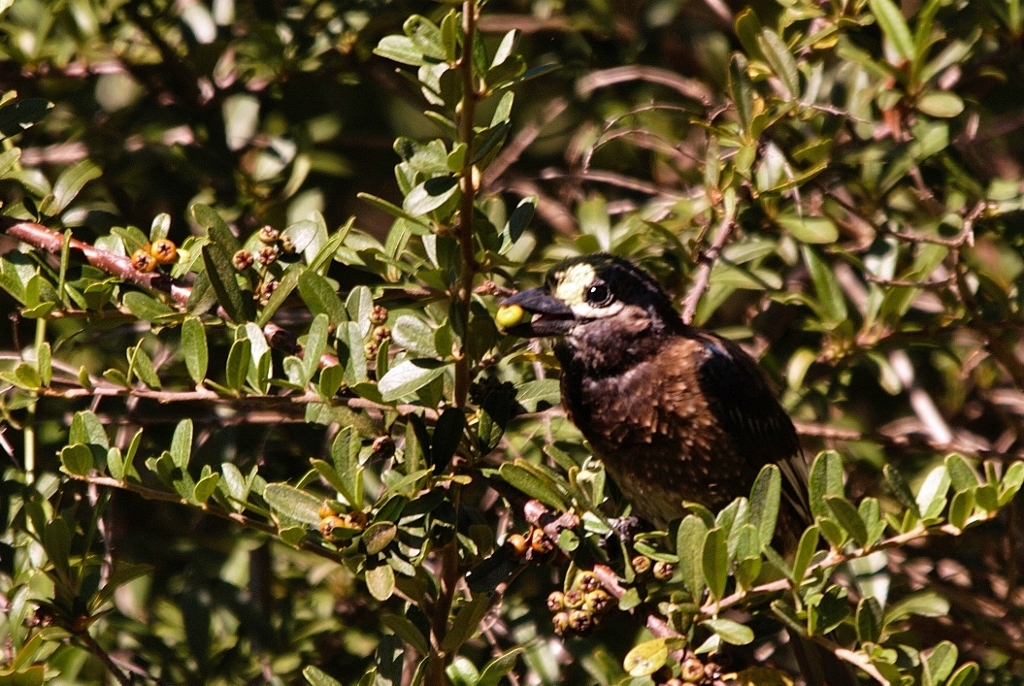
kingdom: Animalia
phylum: Chordata
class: Aves
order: Piciformes
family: Lybiidae
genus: Stactolaema
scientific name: Stactolaema whytii
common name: Whyte's barbet
